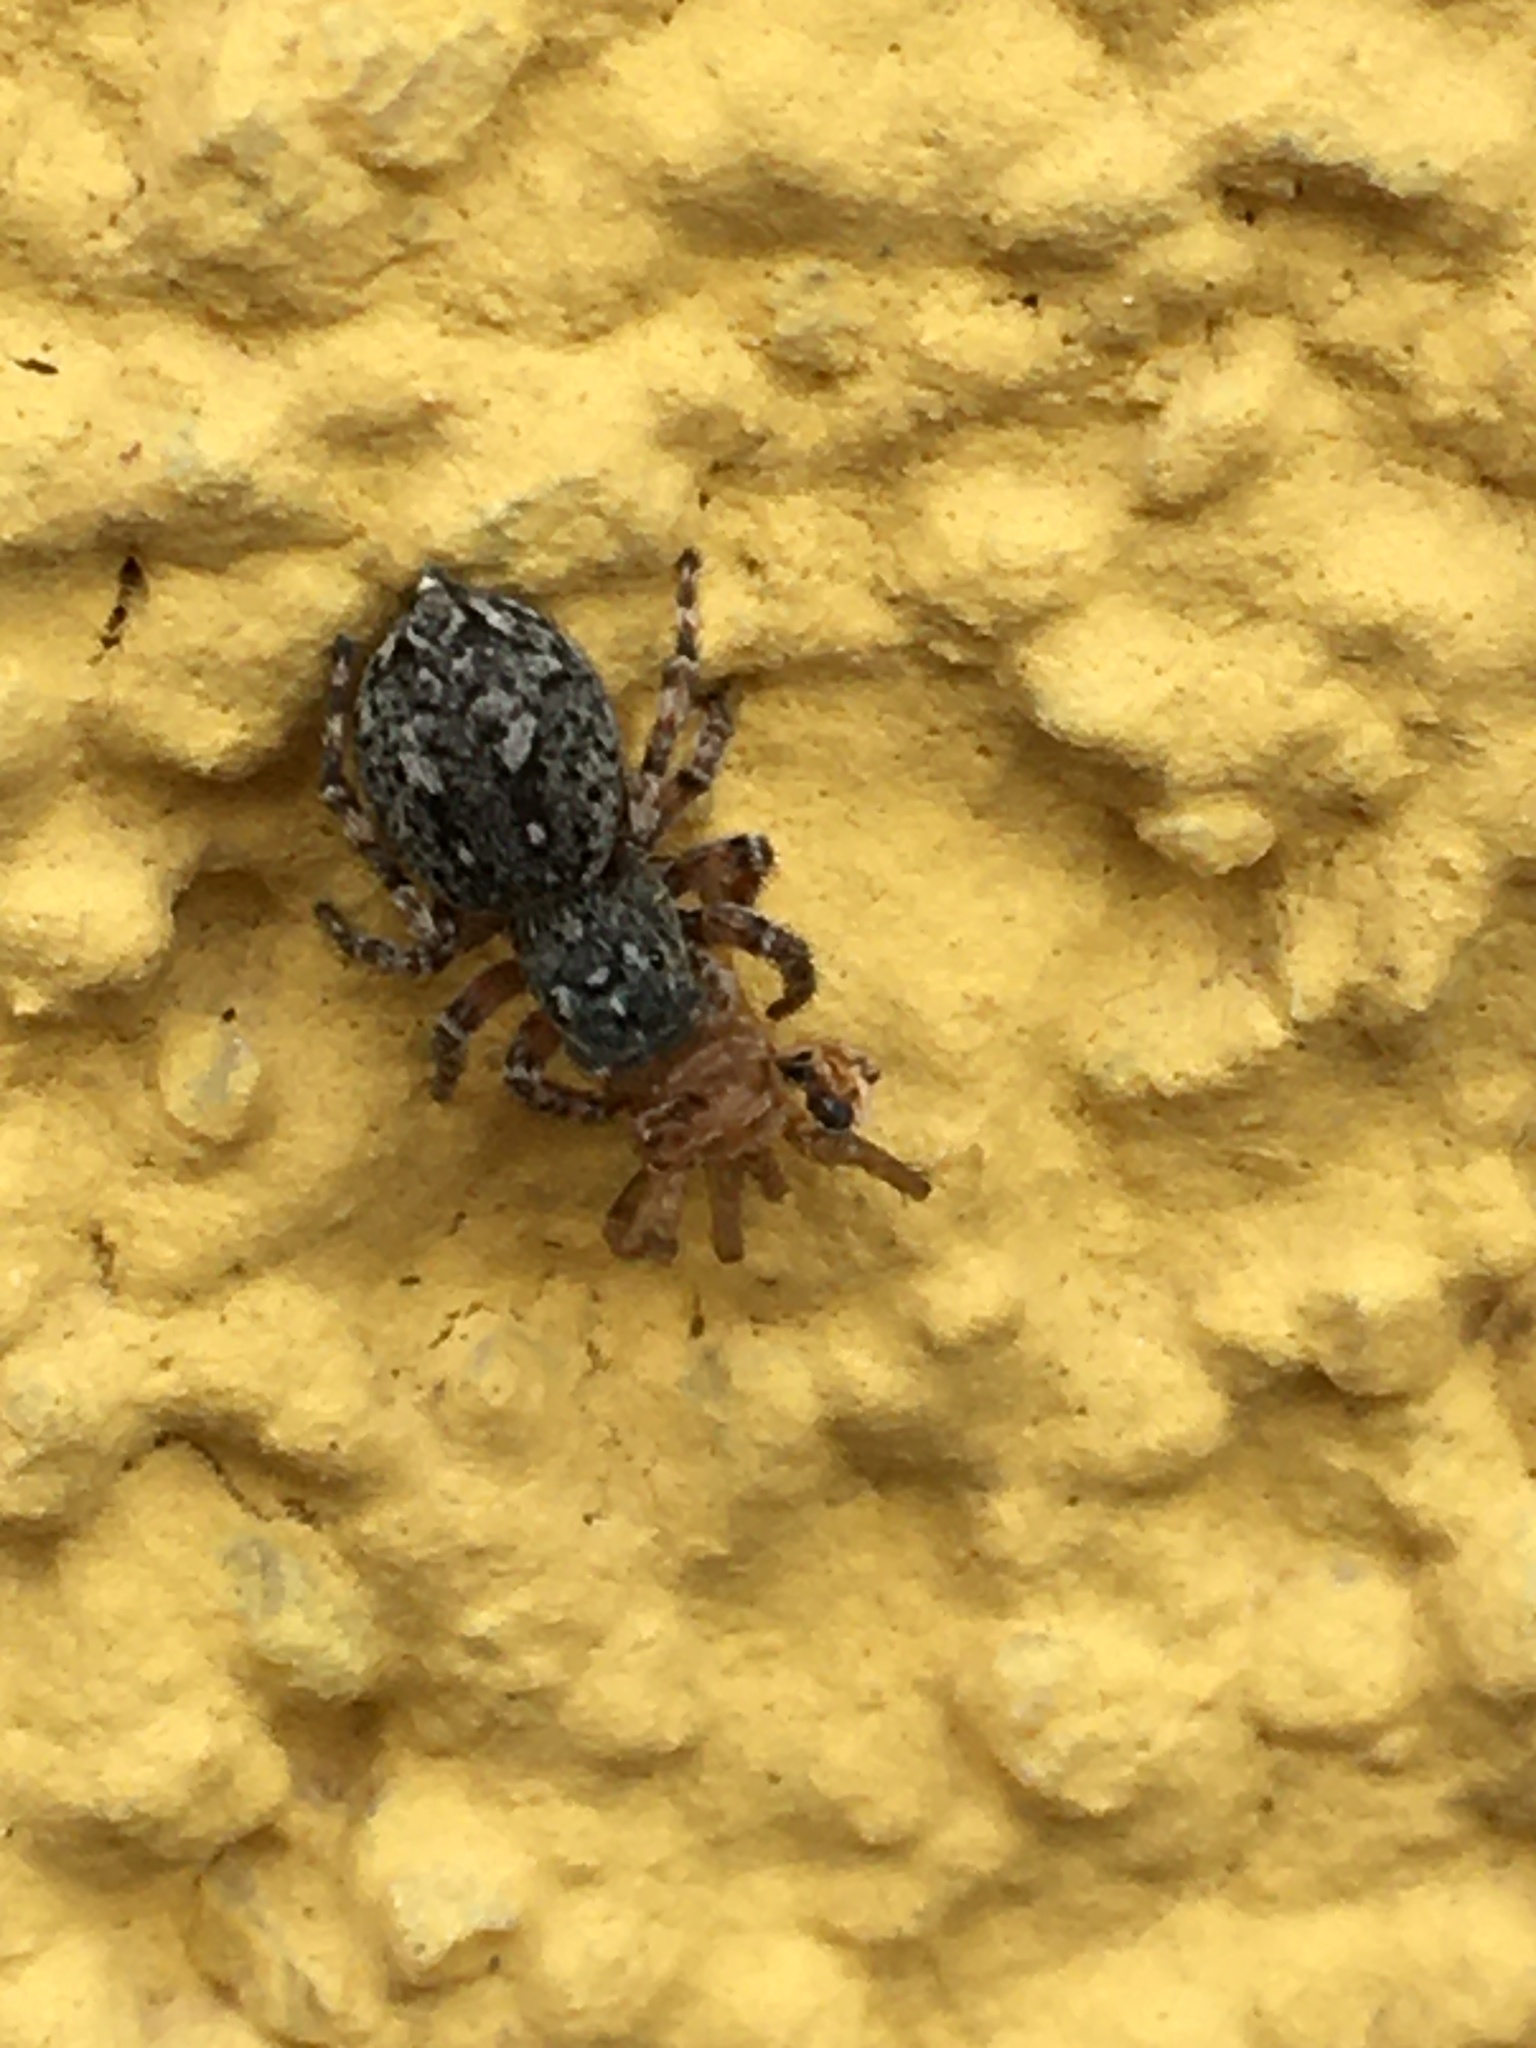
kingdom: Animalia
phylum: Arthropoda
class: Arachnida
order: Araneae
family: Salticidae
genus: Attulus
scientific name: Attulus pubescens
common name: Jumping spider
